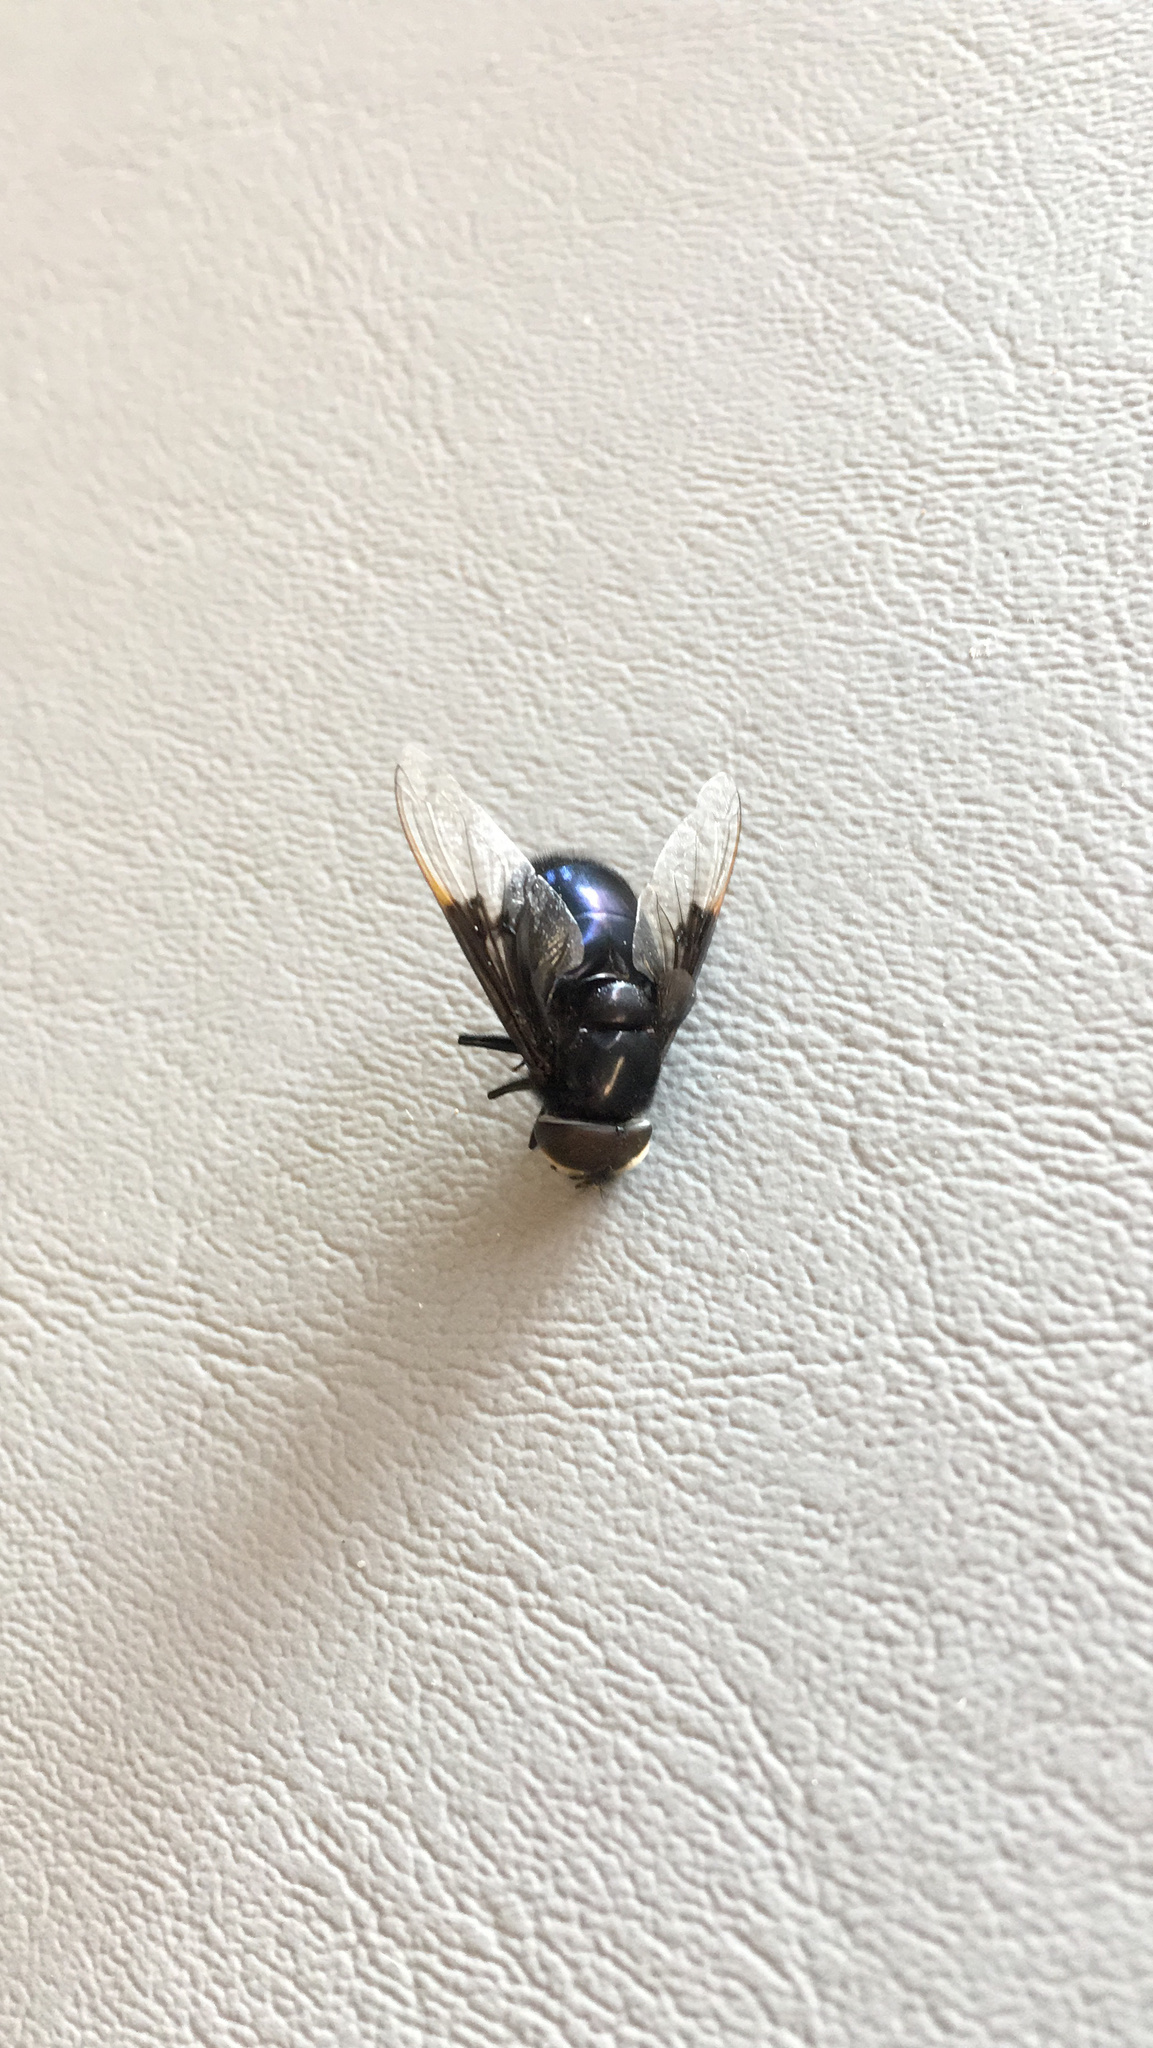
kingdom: Animalia
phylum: Arthropoda
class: Insecta
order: Diptera
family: Syrphidae
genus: Copestylum
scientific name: Copestylum mexicanum
